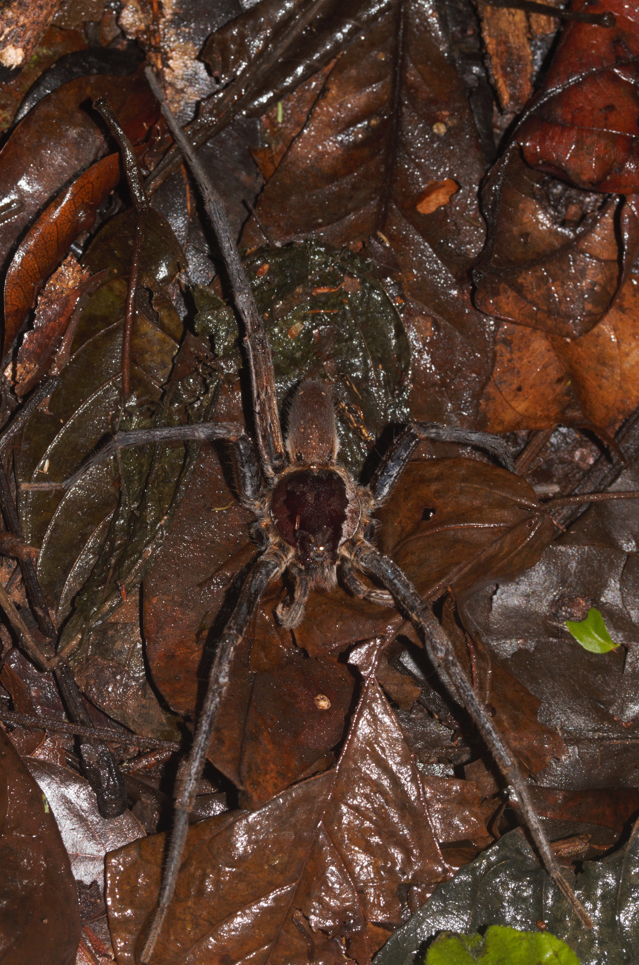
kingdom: Animalia
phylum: Arthropoda
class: Arachnida
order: Araneae
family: Ctenidae
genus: Ancylometes
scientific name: Ancylometes
